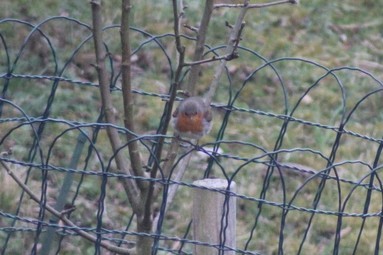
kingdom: Animalia
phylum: Chordata
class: Aves
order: Passeriformes
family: Muscicapidae
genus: Erithacus
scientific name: Erithacus rubecula
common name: European robin
